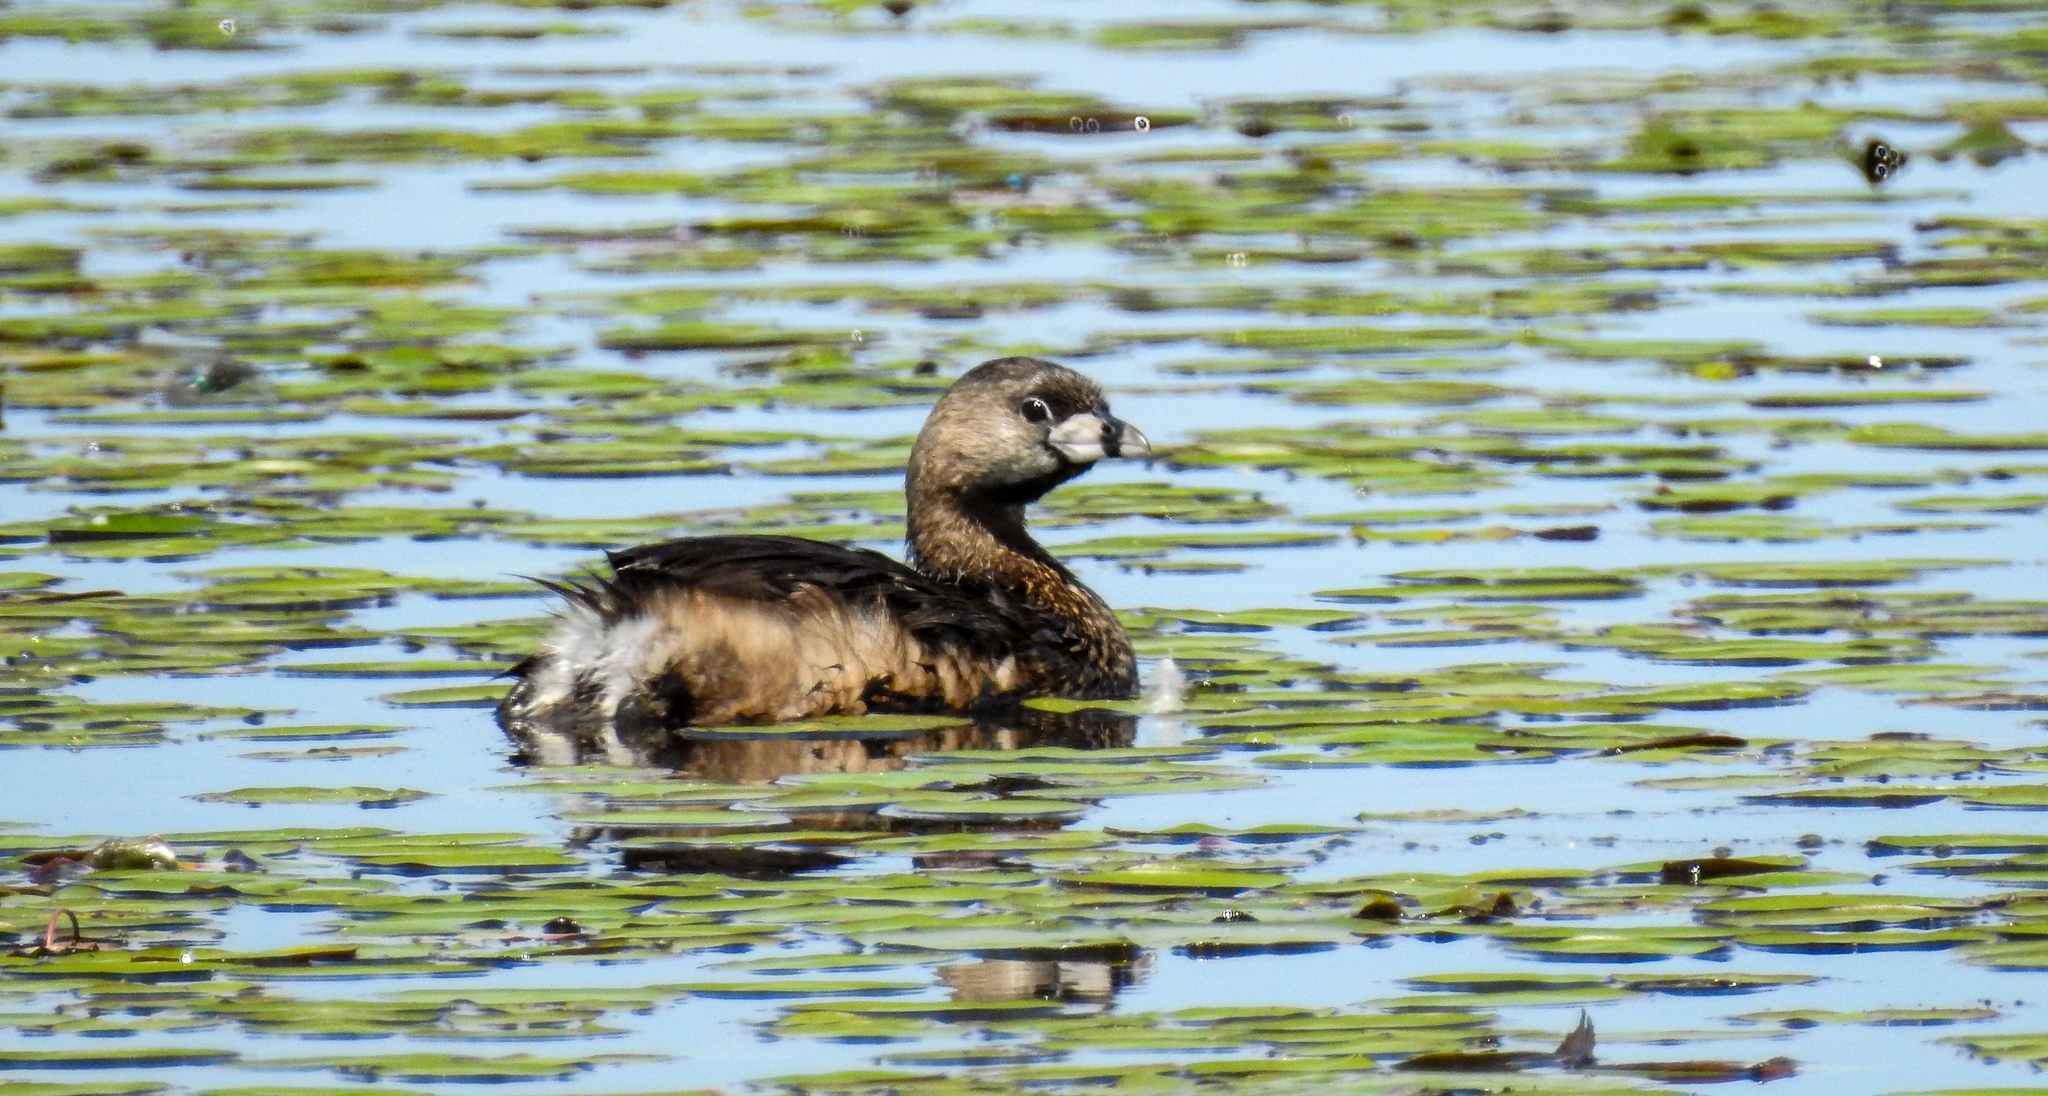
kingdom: Animalia
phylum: Chordata
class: Aves
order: Podicipediformes
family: Podicipedidae
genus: Podilymbus
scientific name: Podilymbus podiceps
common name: Pied-billed grebe
